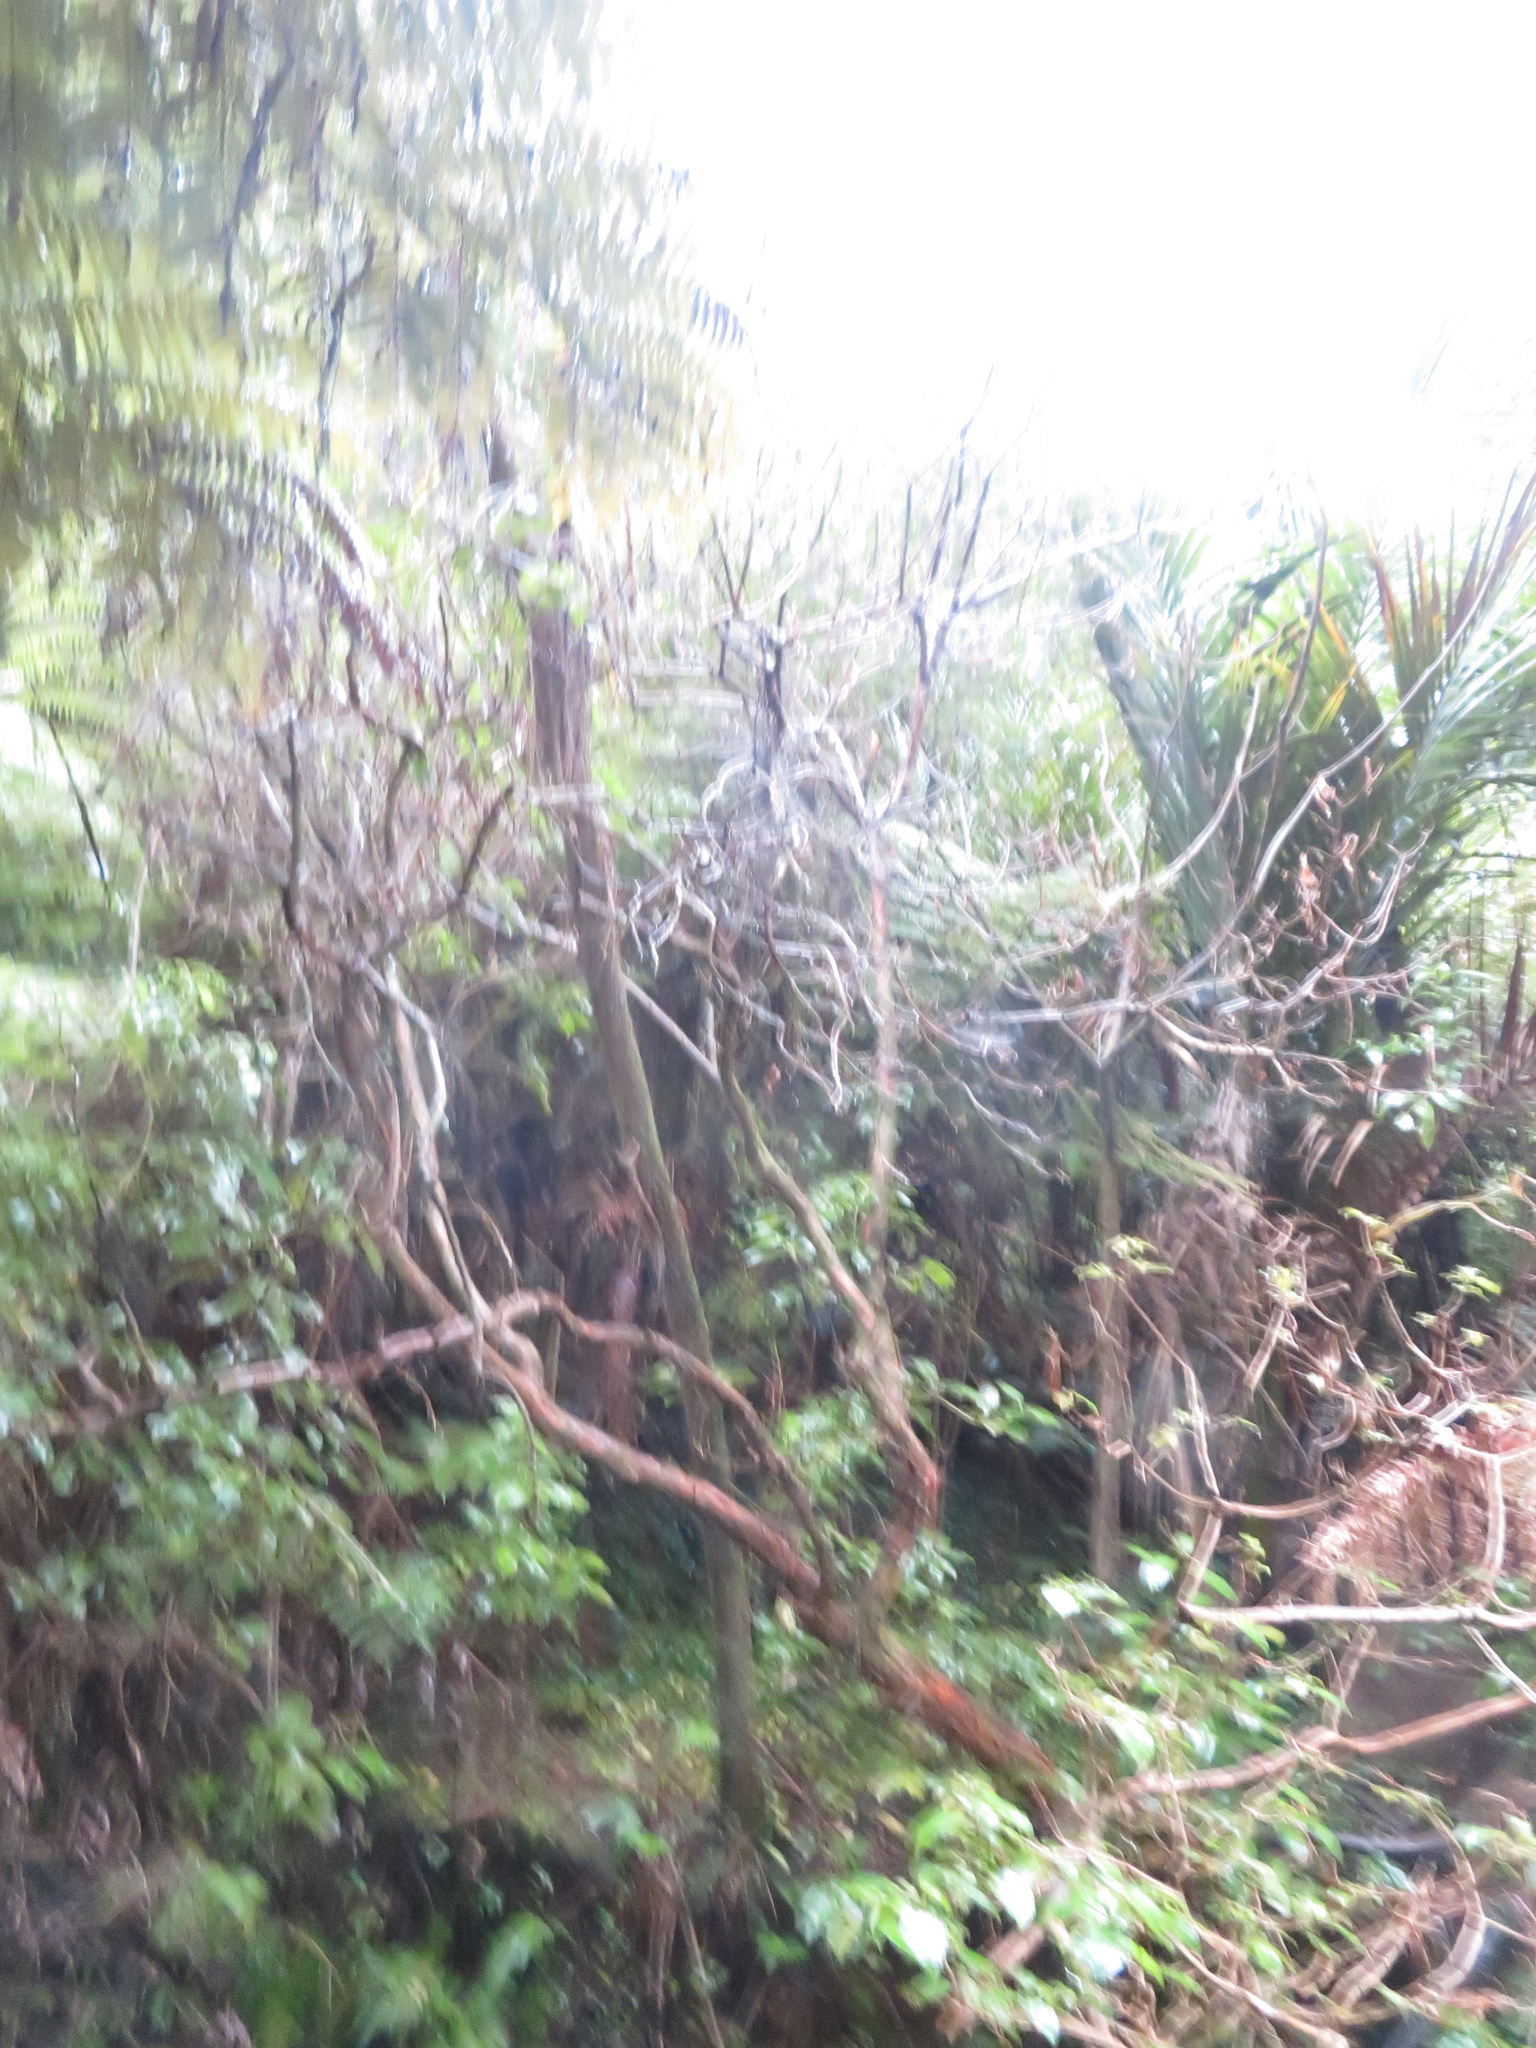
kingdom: Plantae
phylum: Tracheophyta
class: Magnoliopsida
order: Myrtales
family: Onagraceae
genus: Fuchsia
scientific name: Fuchsia excorticata
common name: Tree fuchsia
